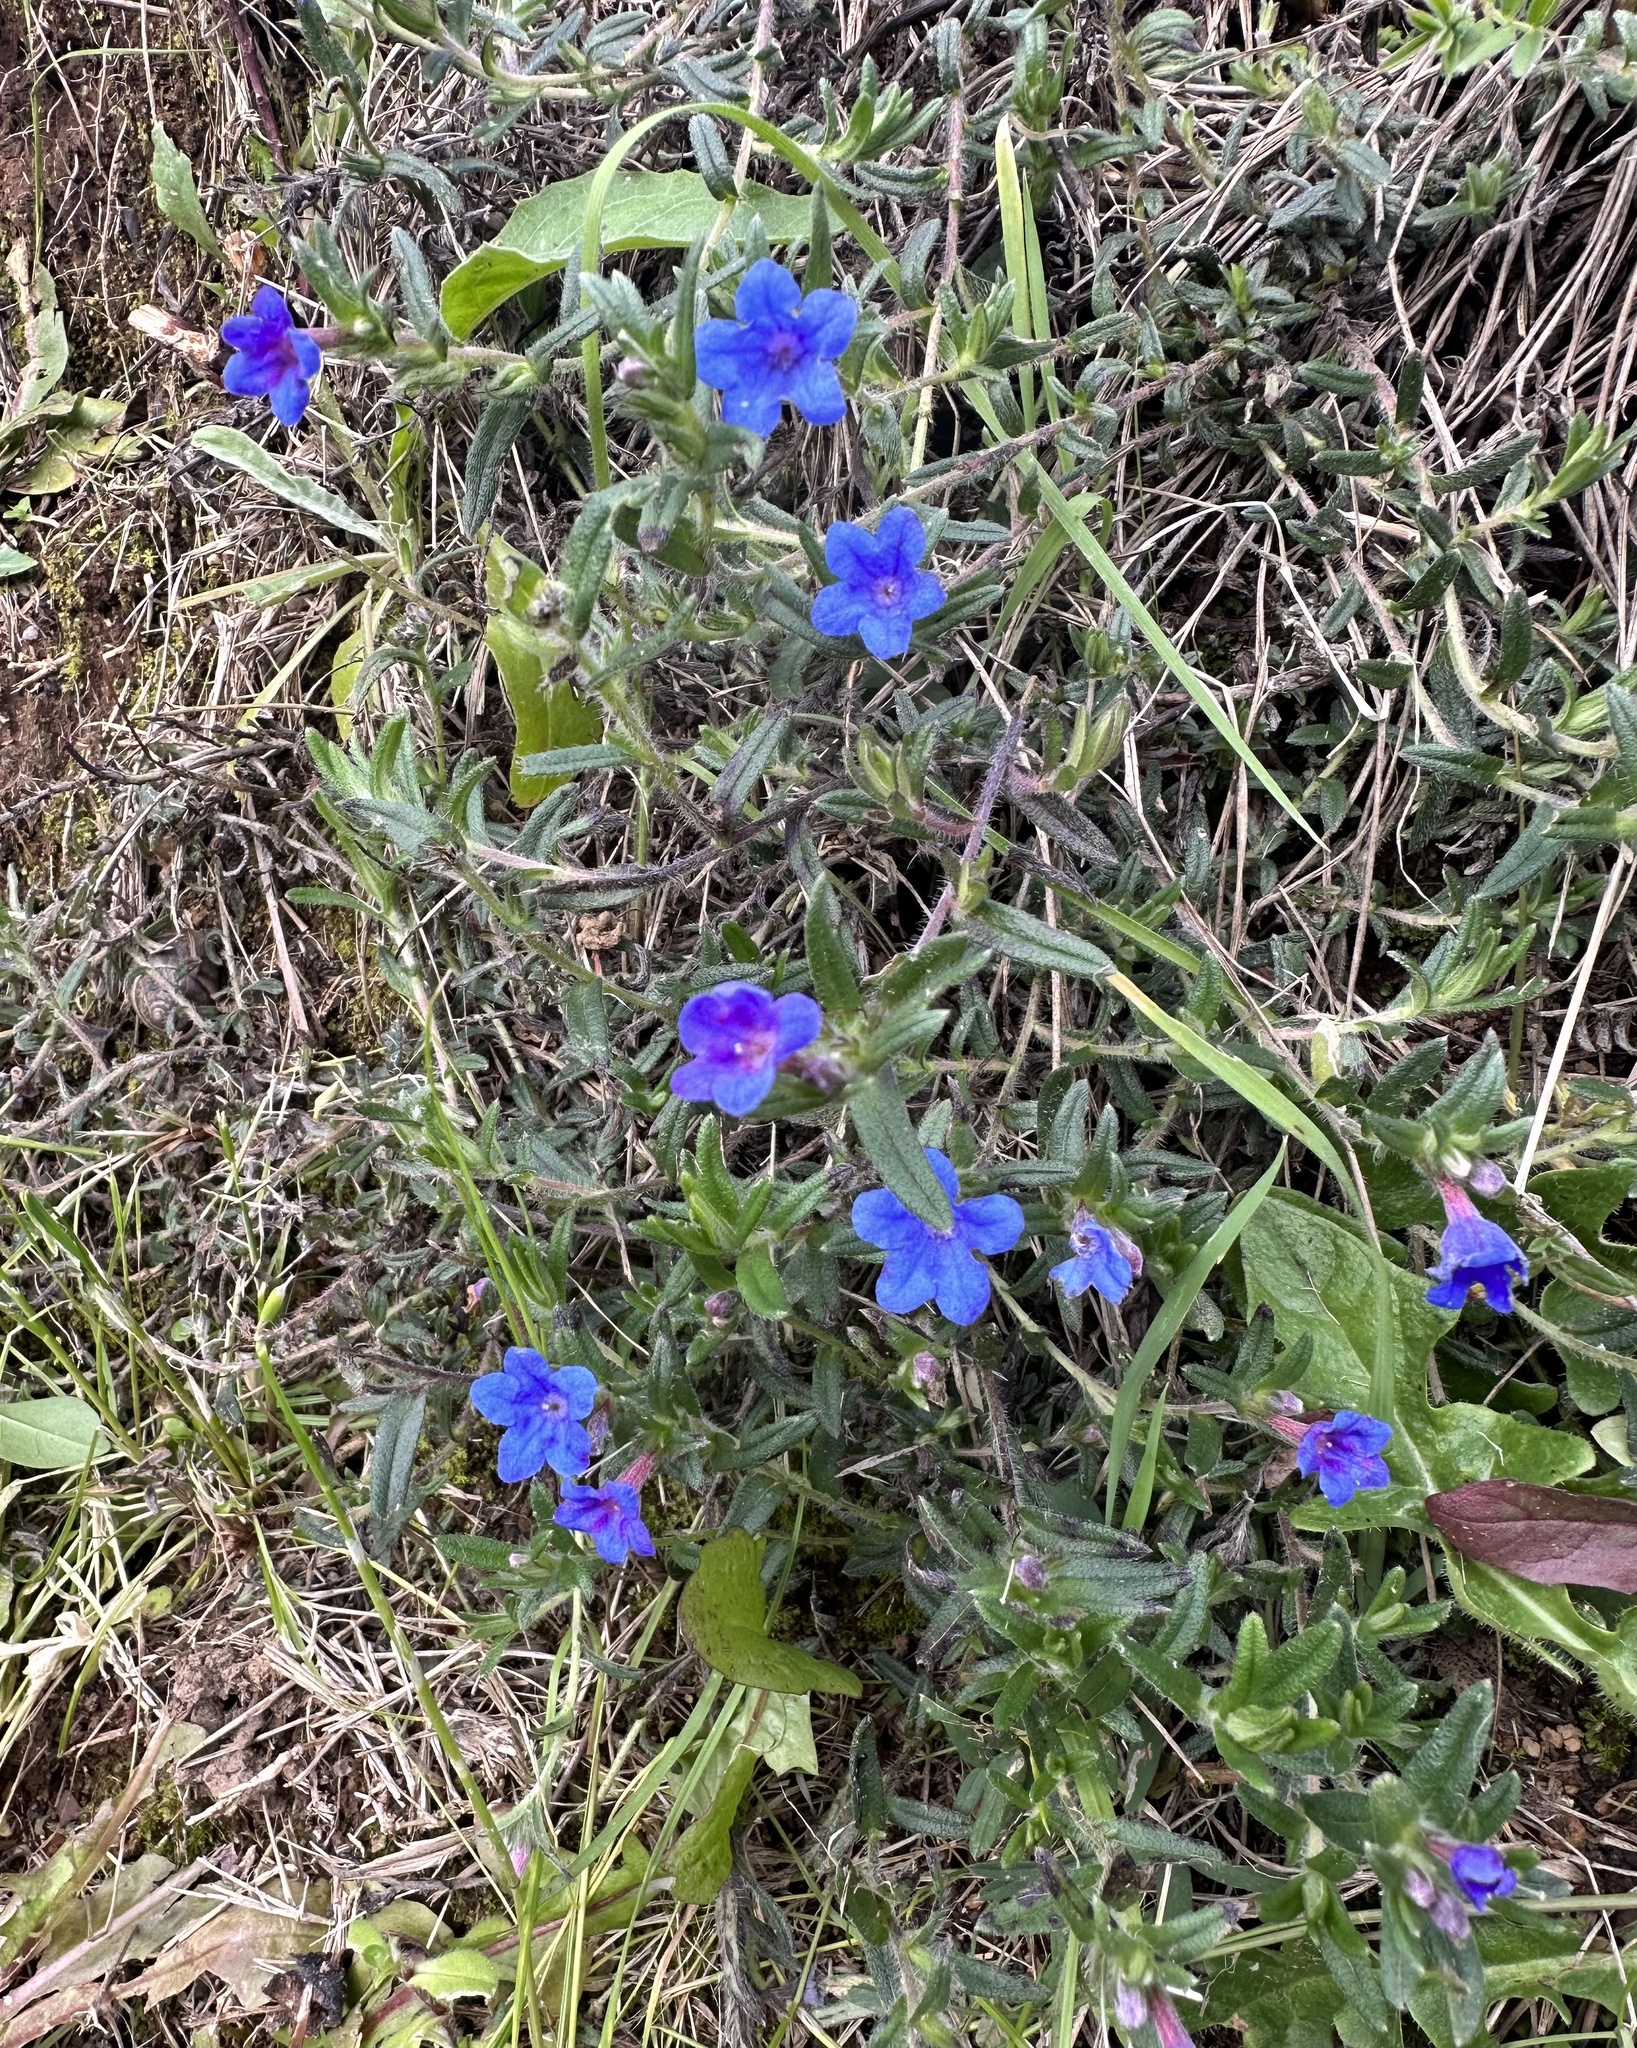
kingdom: Plantae
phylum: Tracheophyta
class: Magnoliopsida
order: Boraginales
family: Boraginaceae
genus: Glandora
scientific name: Glandora prostrata
